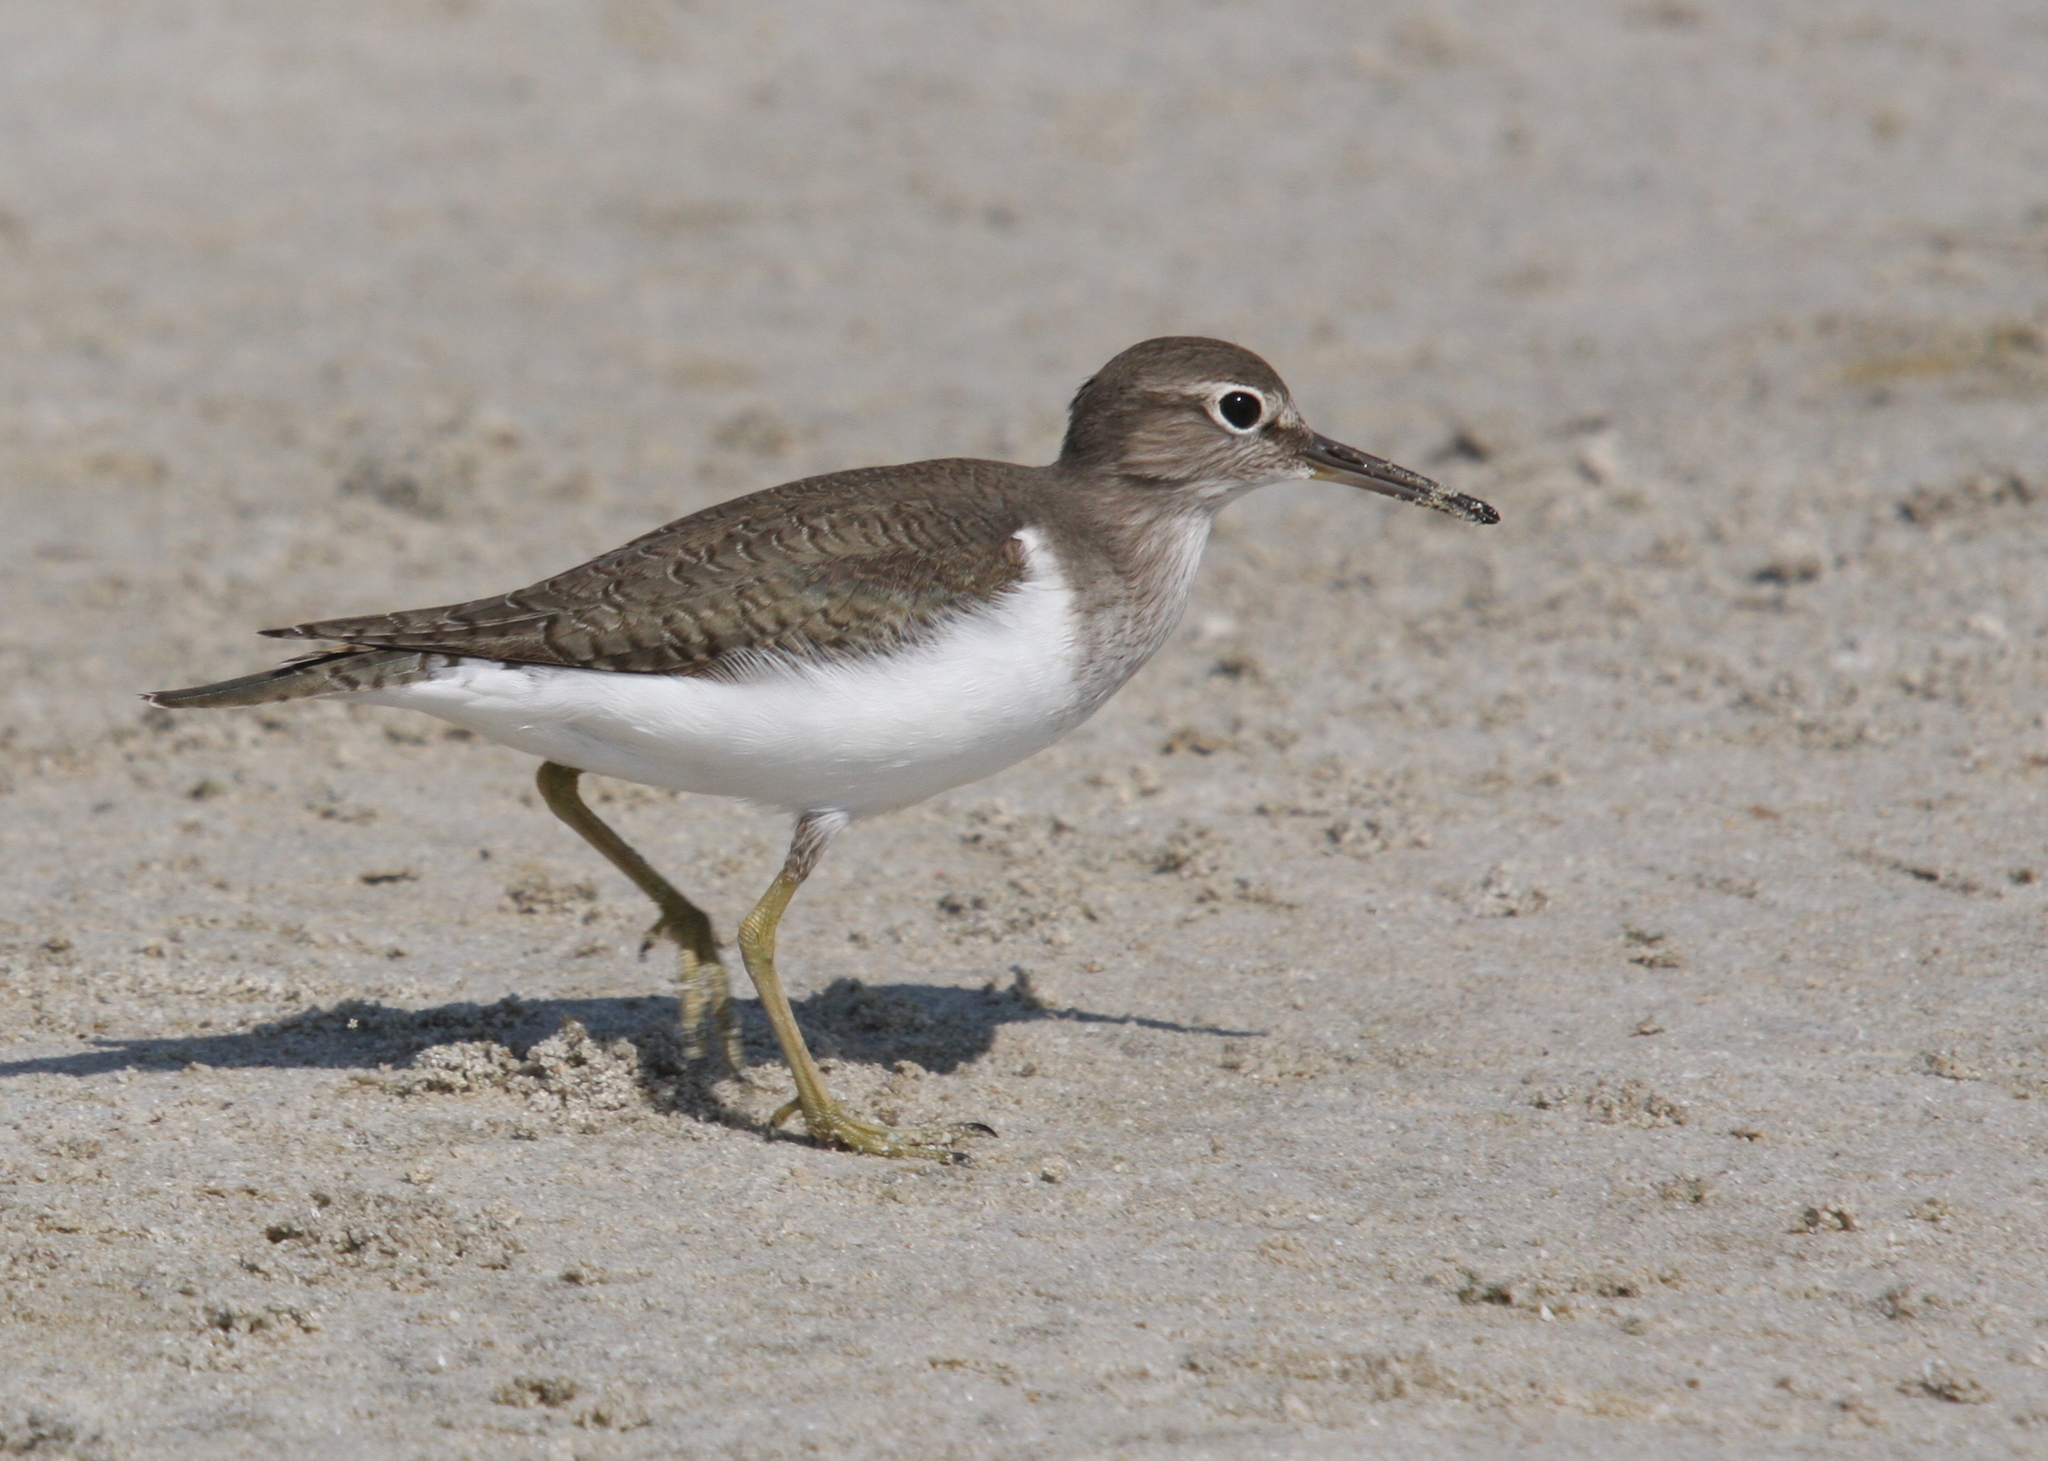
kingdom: Animalia
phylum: Chordata
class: Aves
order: Charadriiformes
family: Scolopacidae
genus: Actitis
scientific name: Actitis hypoleucos
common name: Common sandpiper
